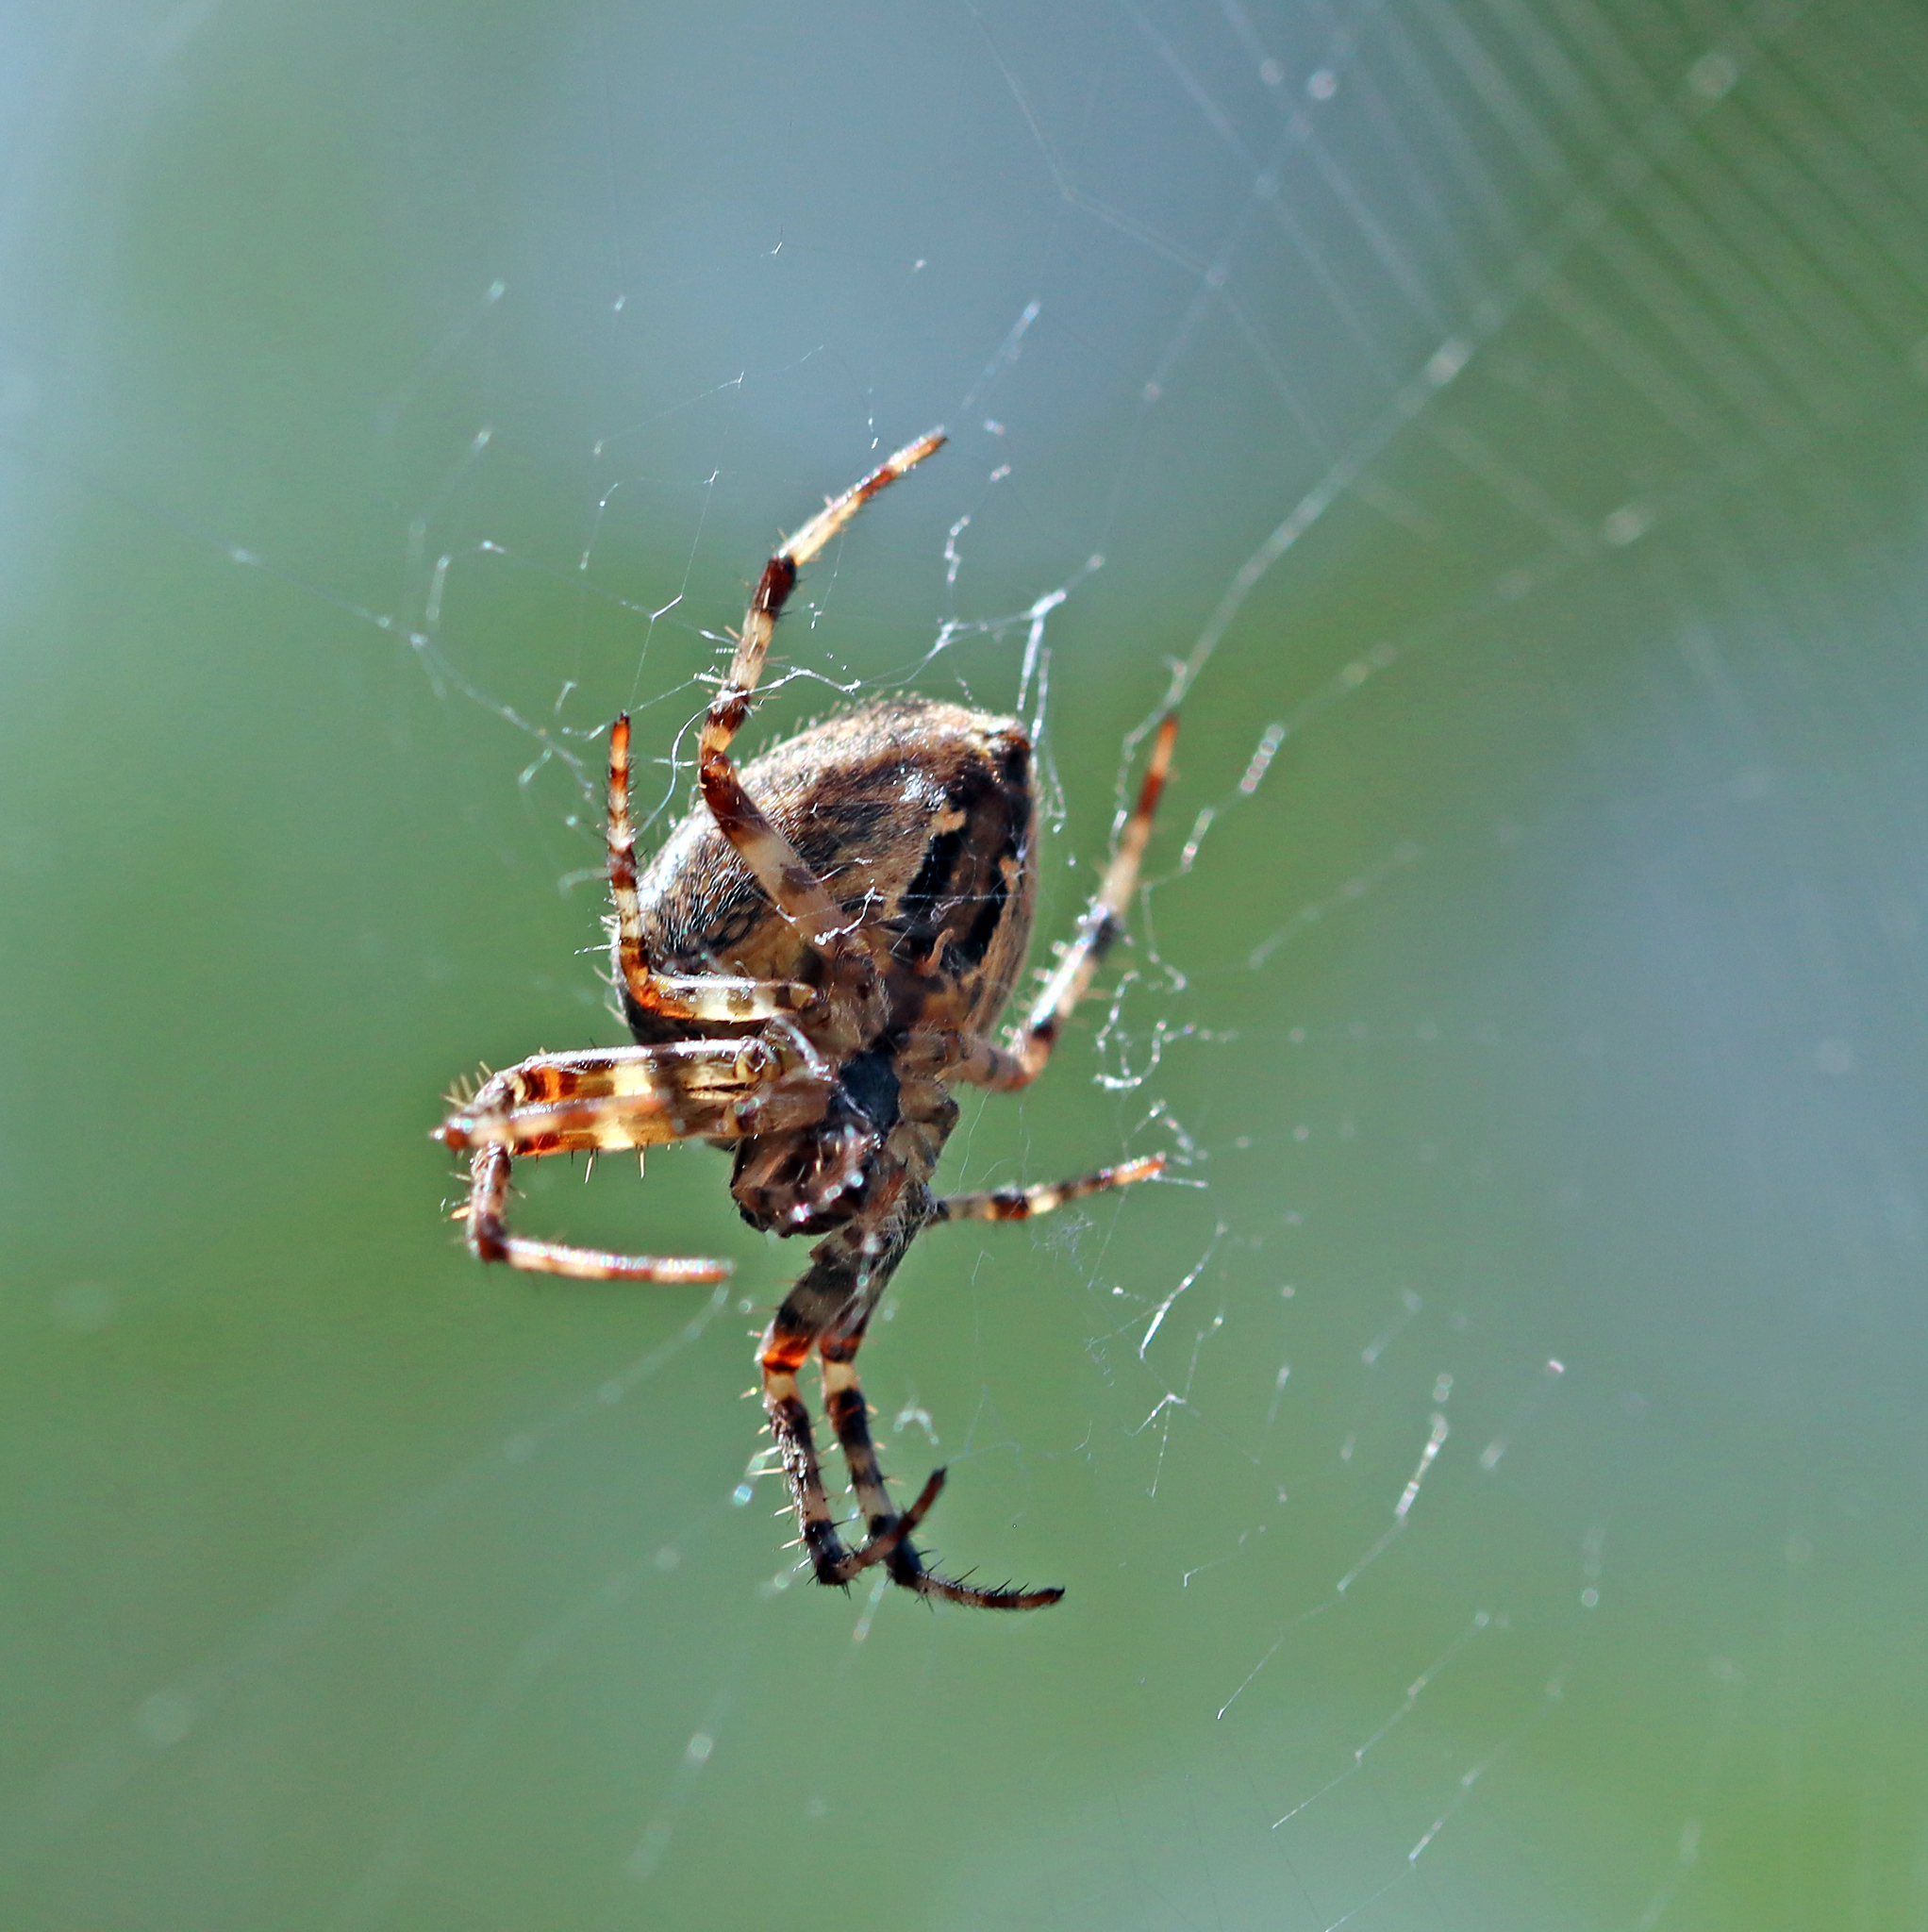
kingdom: Animalia
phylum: Arthropoda
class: Arachnida
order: Araneae
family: Araneidae
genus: Araneus
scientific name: Araneus diadematus
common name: Cross orbweaver
